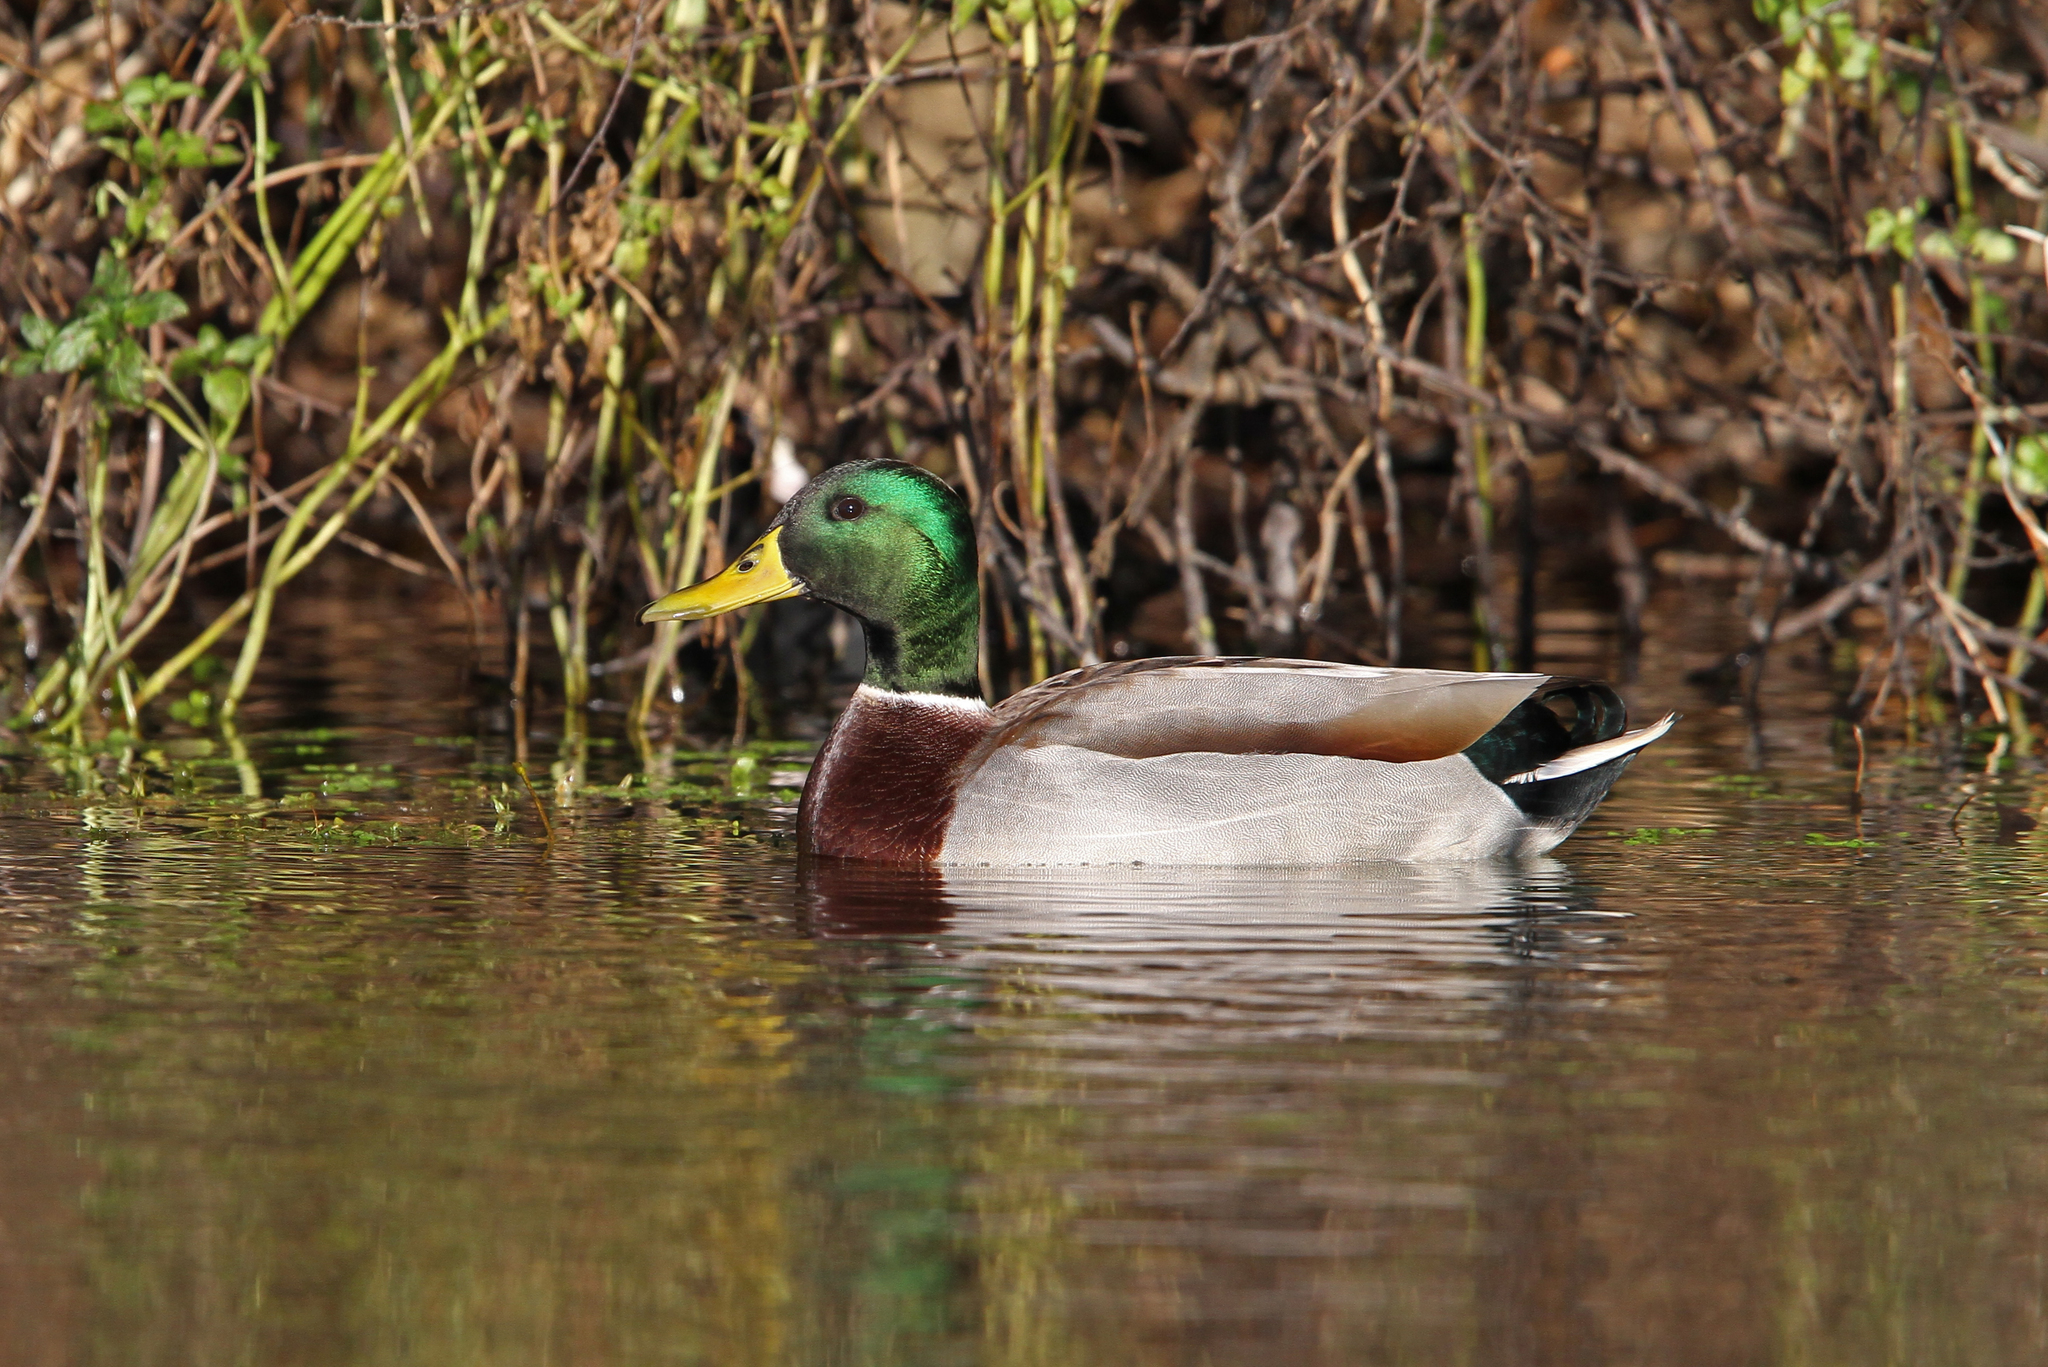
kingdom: Animalia
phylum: Chordata
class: Aves
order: Anseriformes
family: Anatidae
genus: Anas
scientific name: Anas platyrhynchos
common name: Mallard
